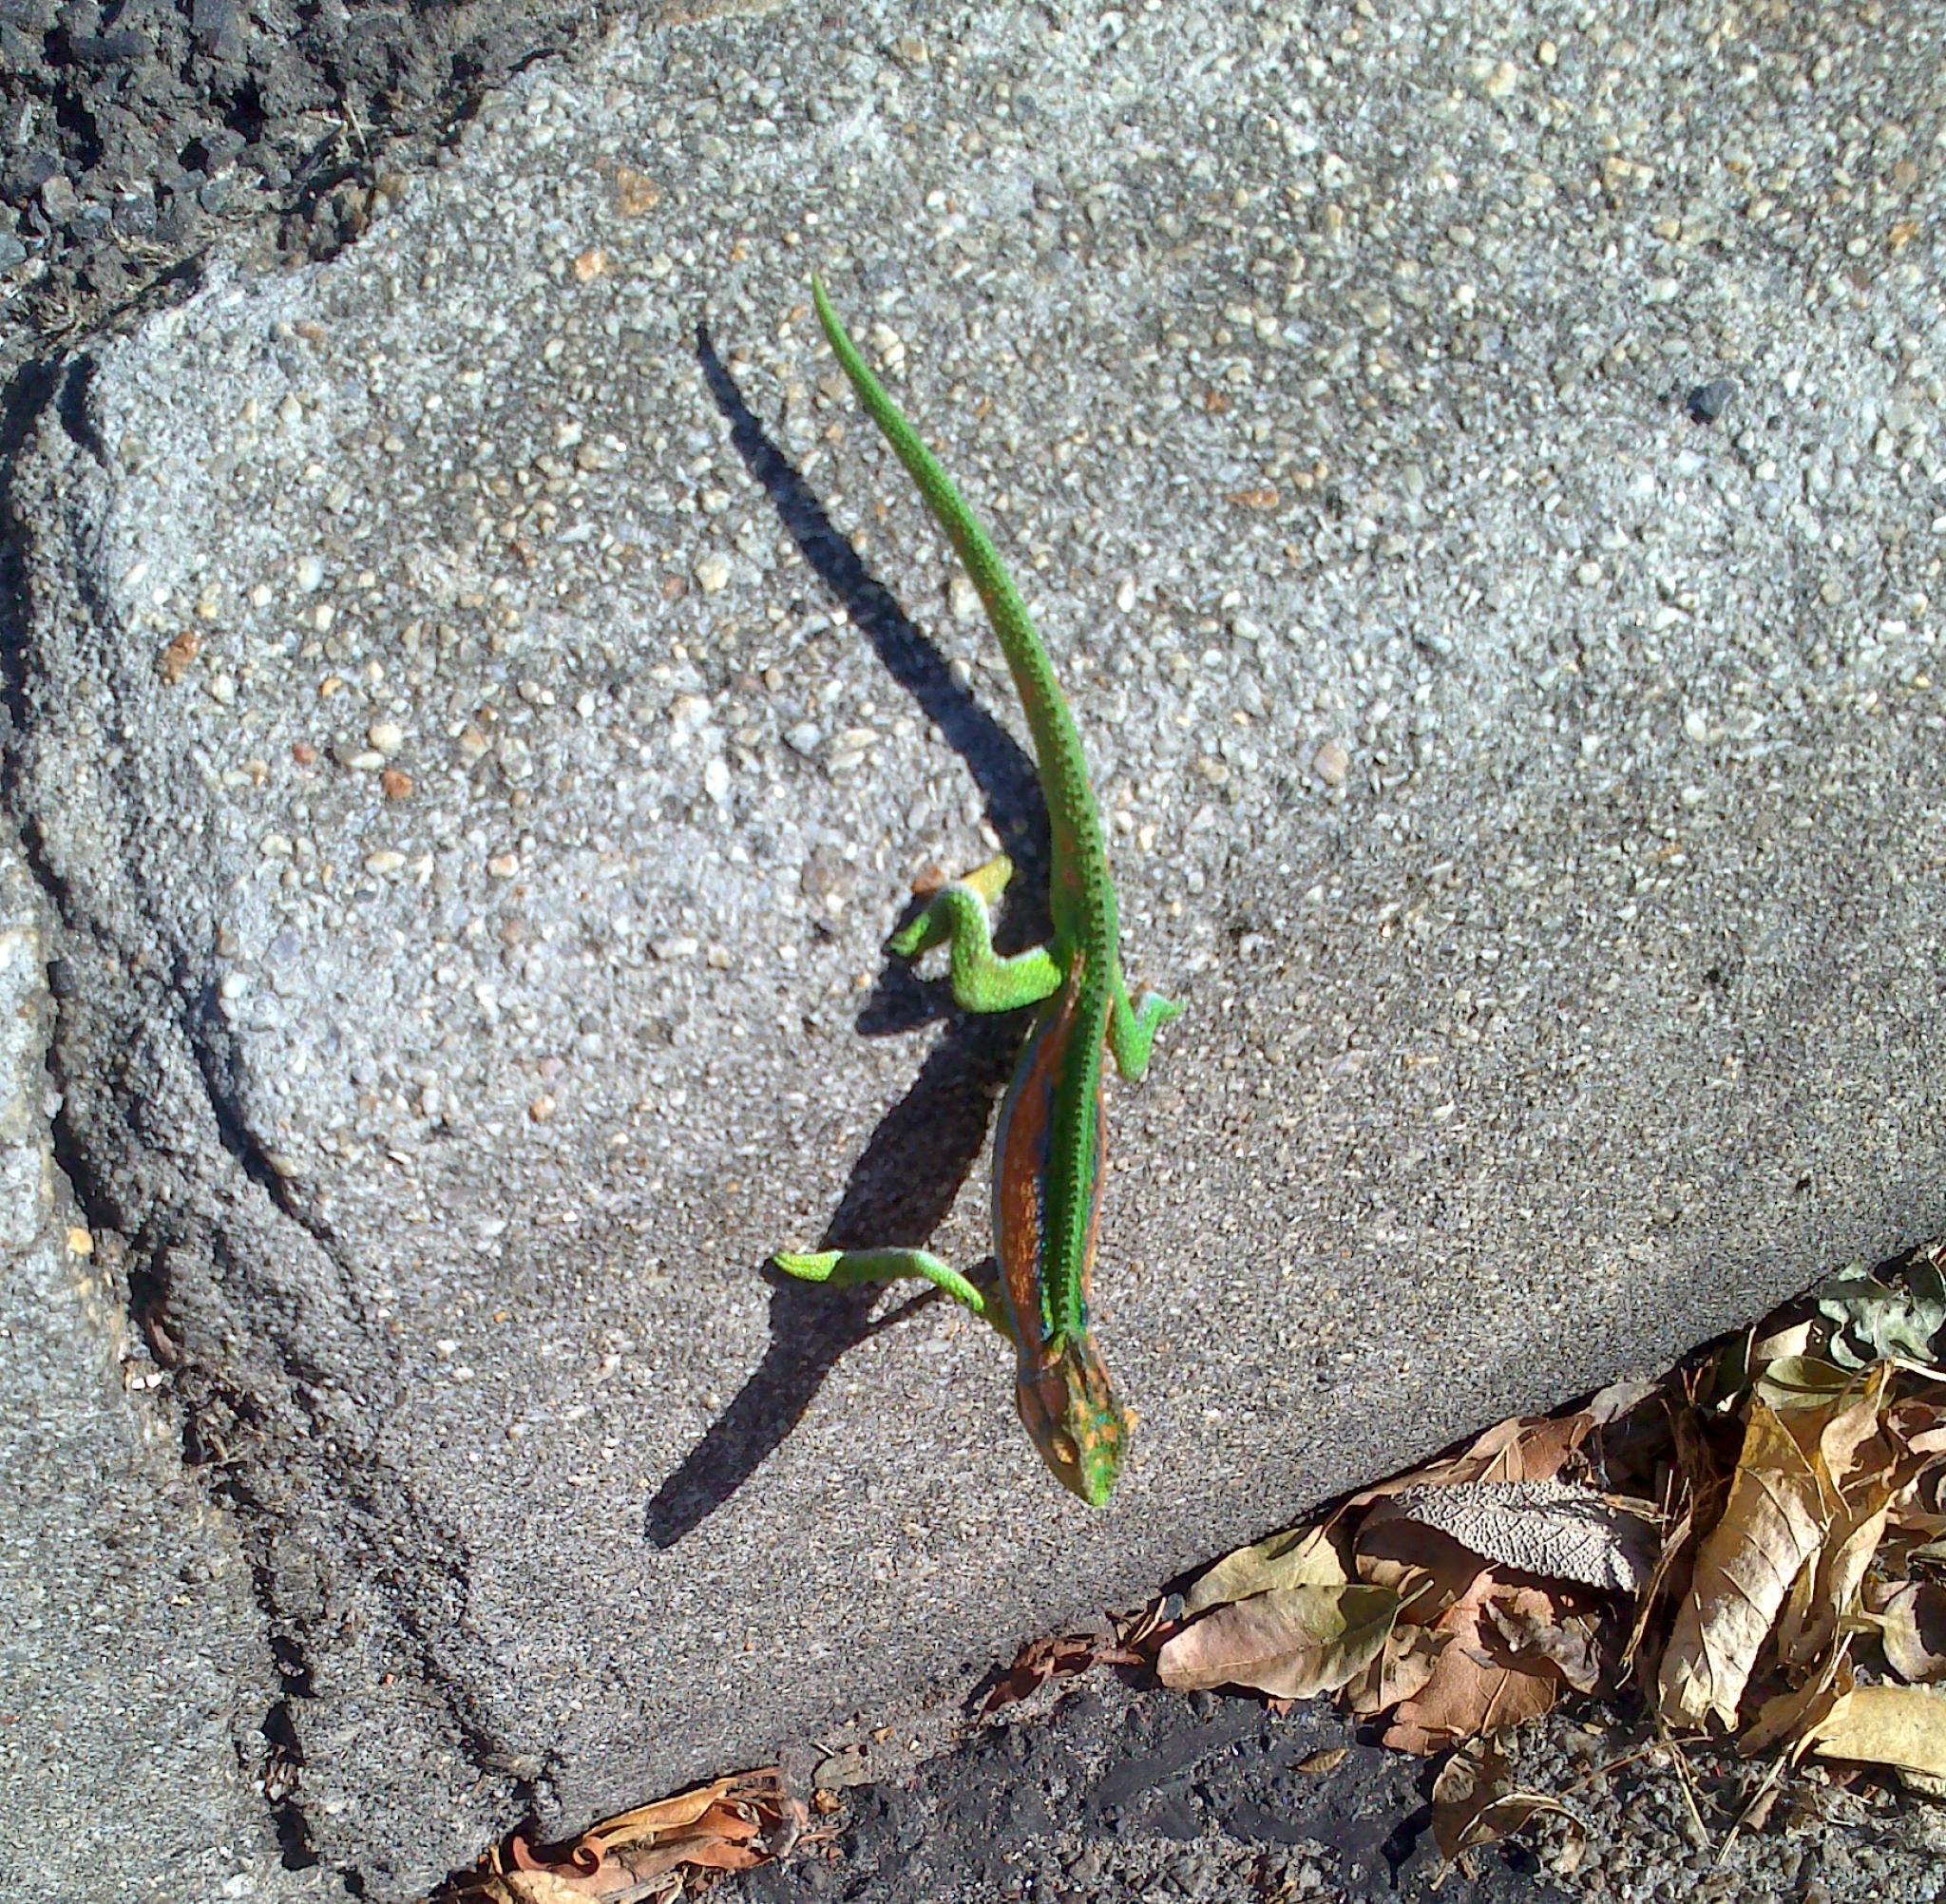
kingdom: Animalia
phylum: Chordata
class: Squamata
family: Chamaeleonidae
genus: Bradypodion
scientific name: Bradypodion pumilum
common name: Cape dwarf chameleon
